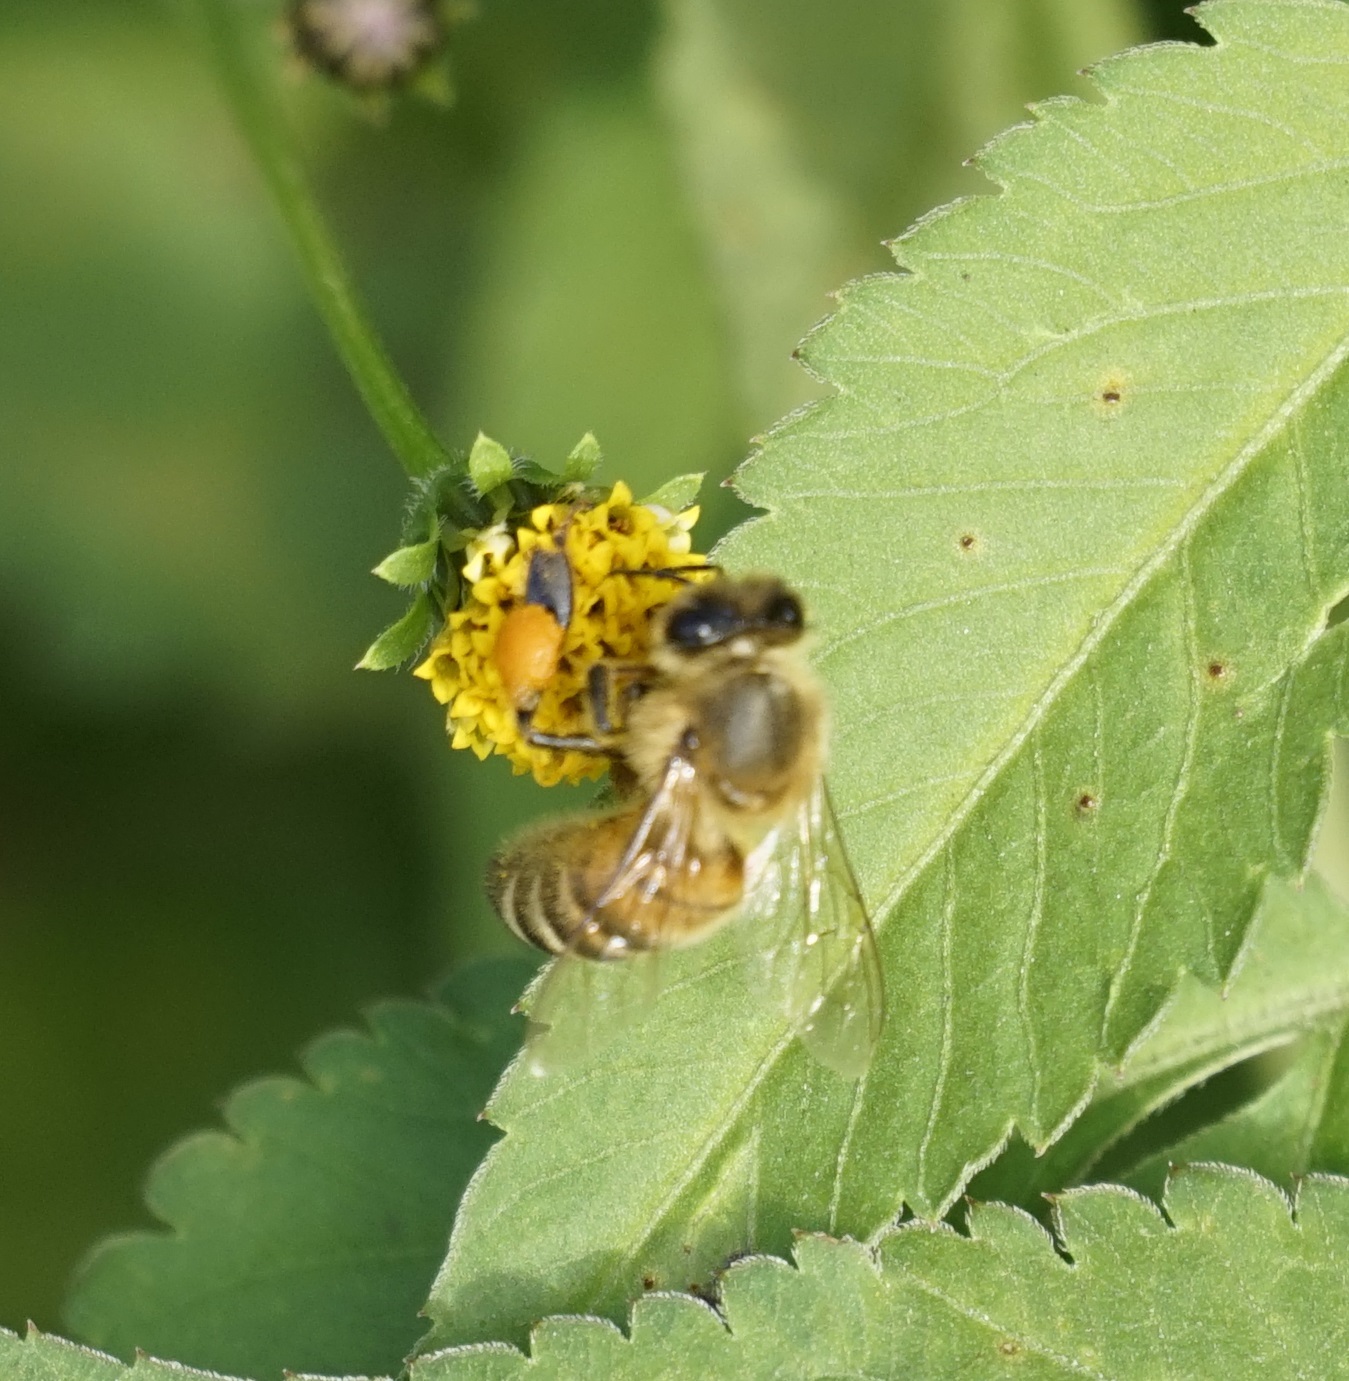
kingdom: Animalia
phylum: Arthropoda
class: Insecta
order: Hymenoptera
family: Apidae
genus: Apis
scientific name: Apis mellifera
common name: Honey bee
